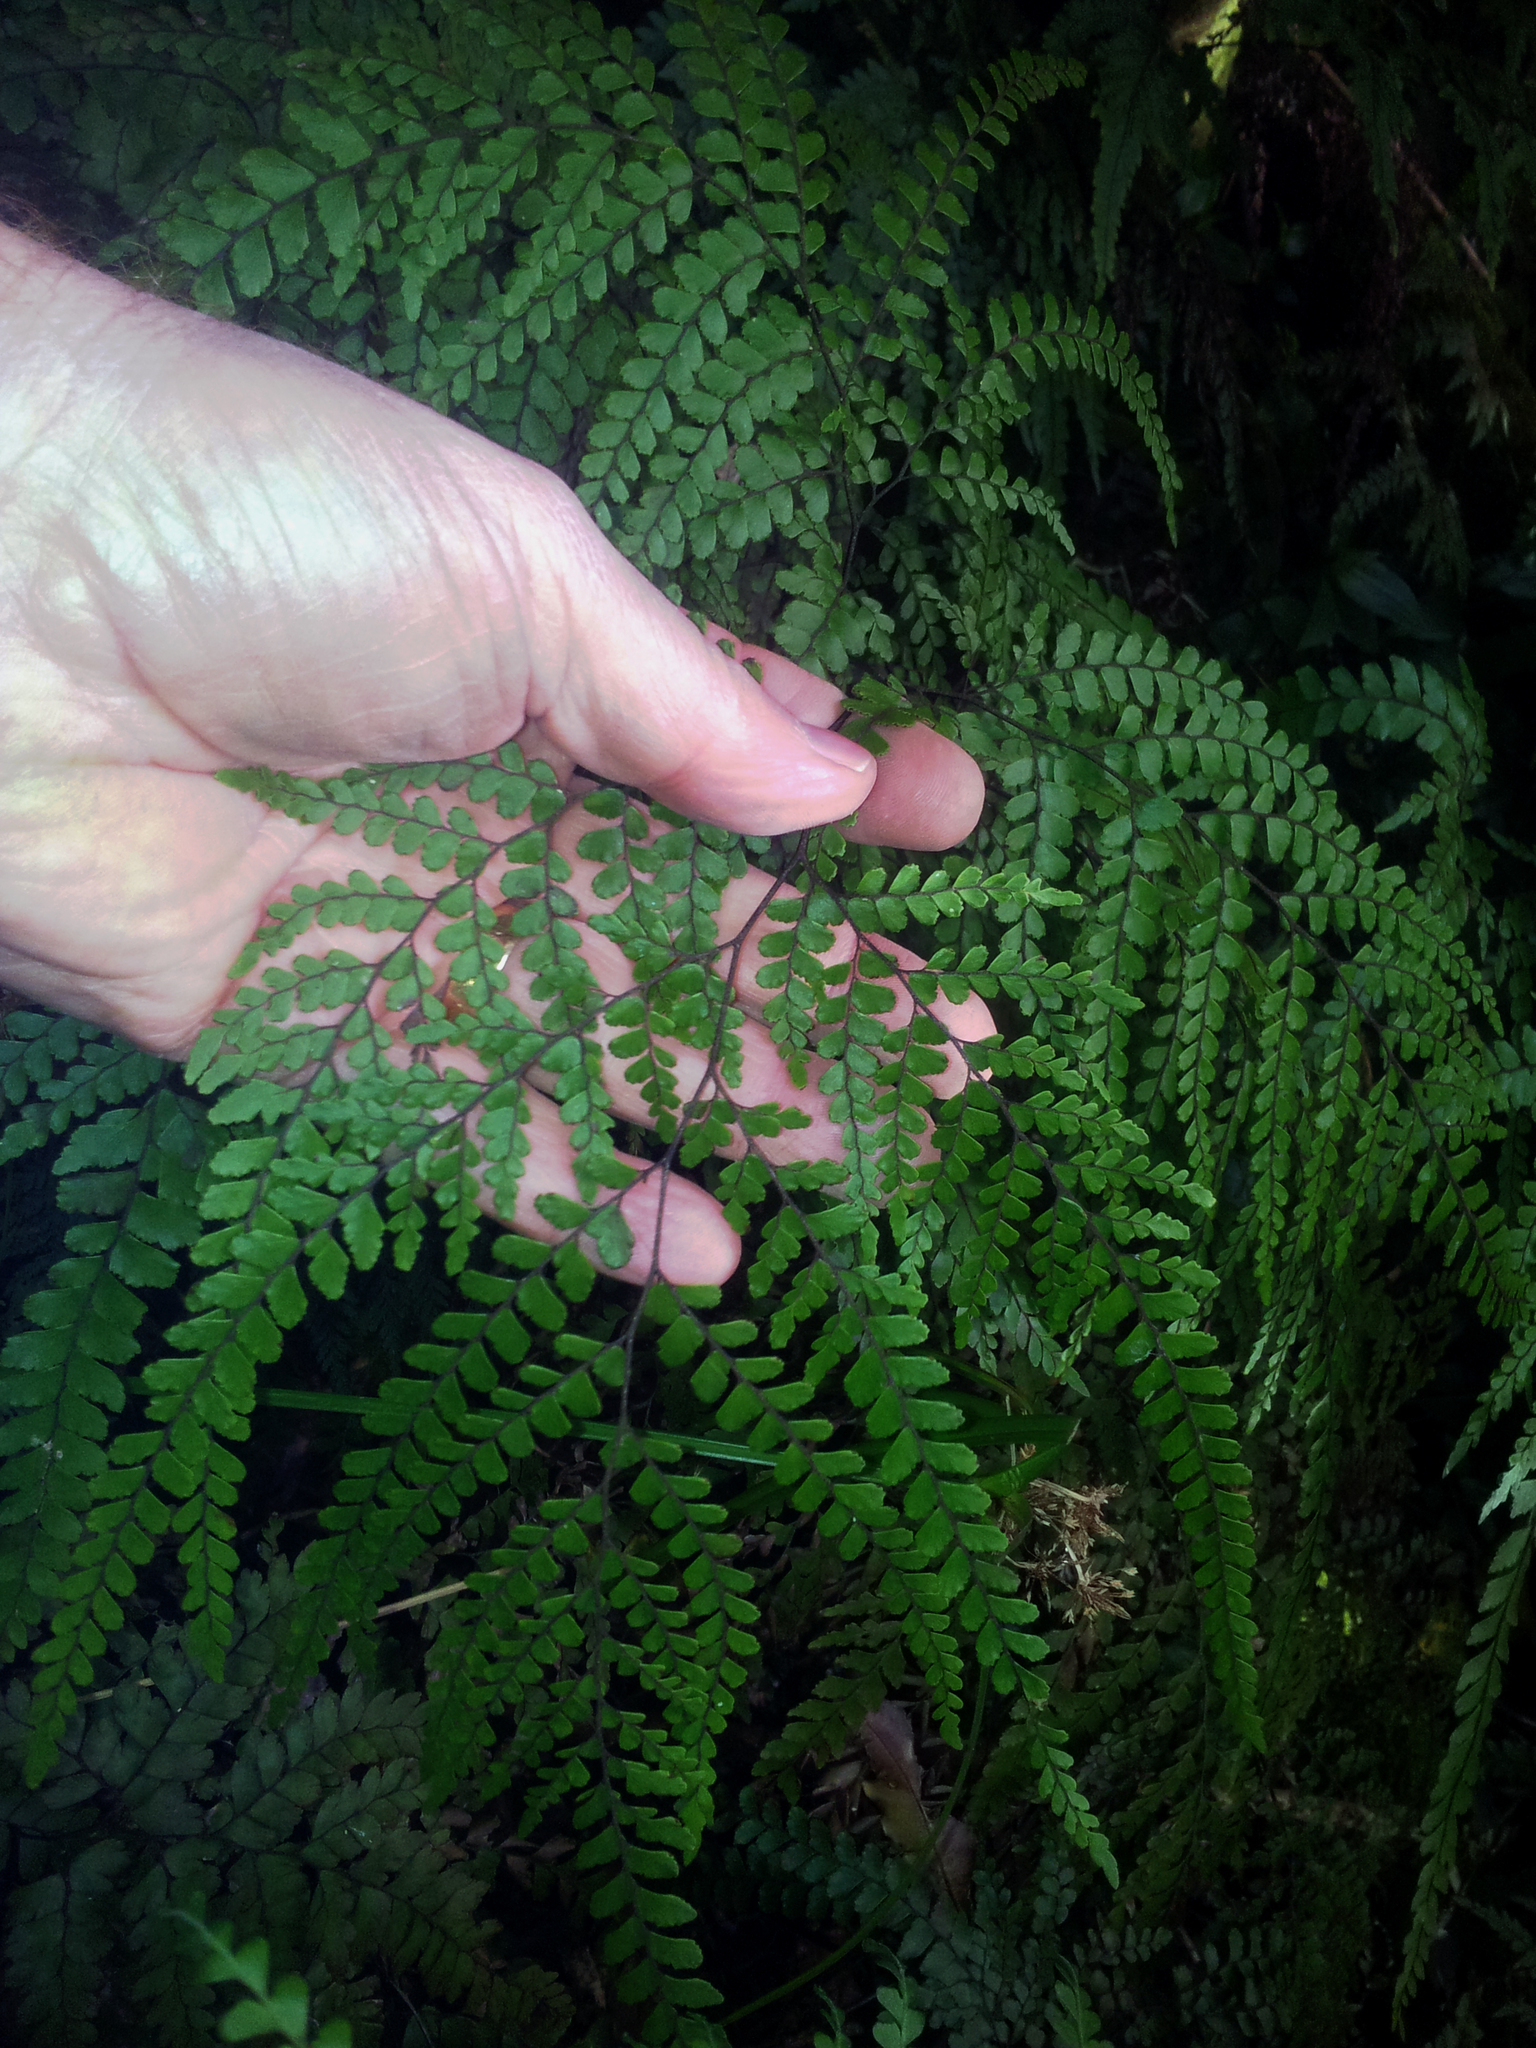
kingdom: Plantae
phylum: Tracheophyta
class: Polypodiopsida
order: Polypodiales
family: Pteridaceae
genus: Adiantum
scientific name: Adiantum formosum
